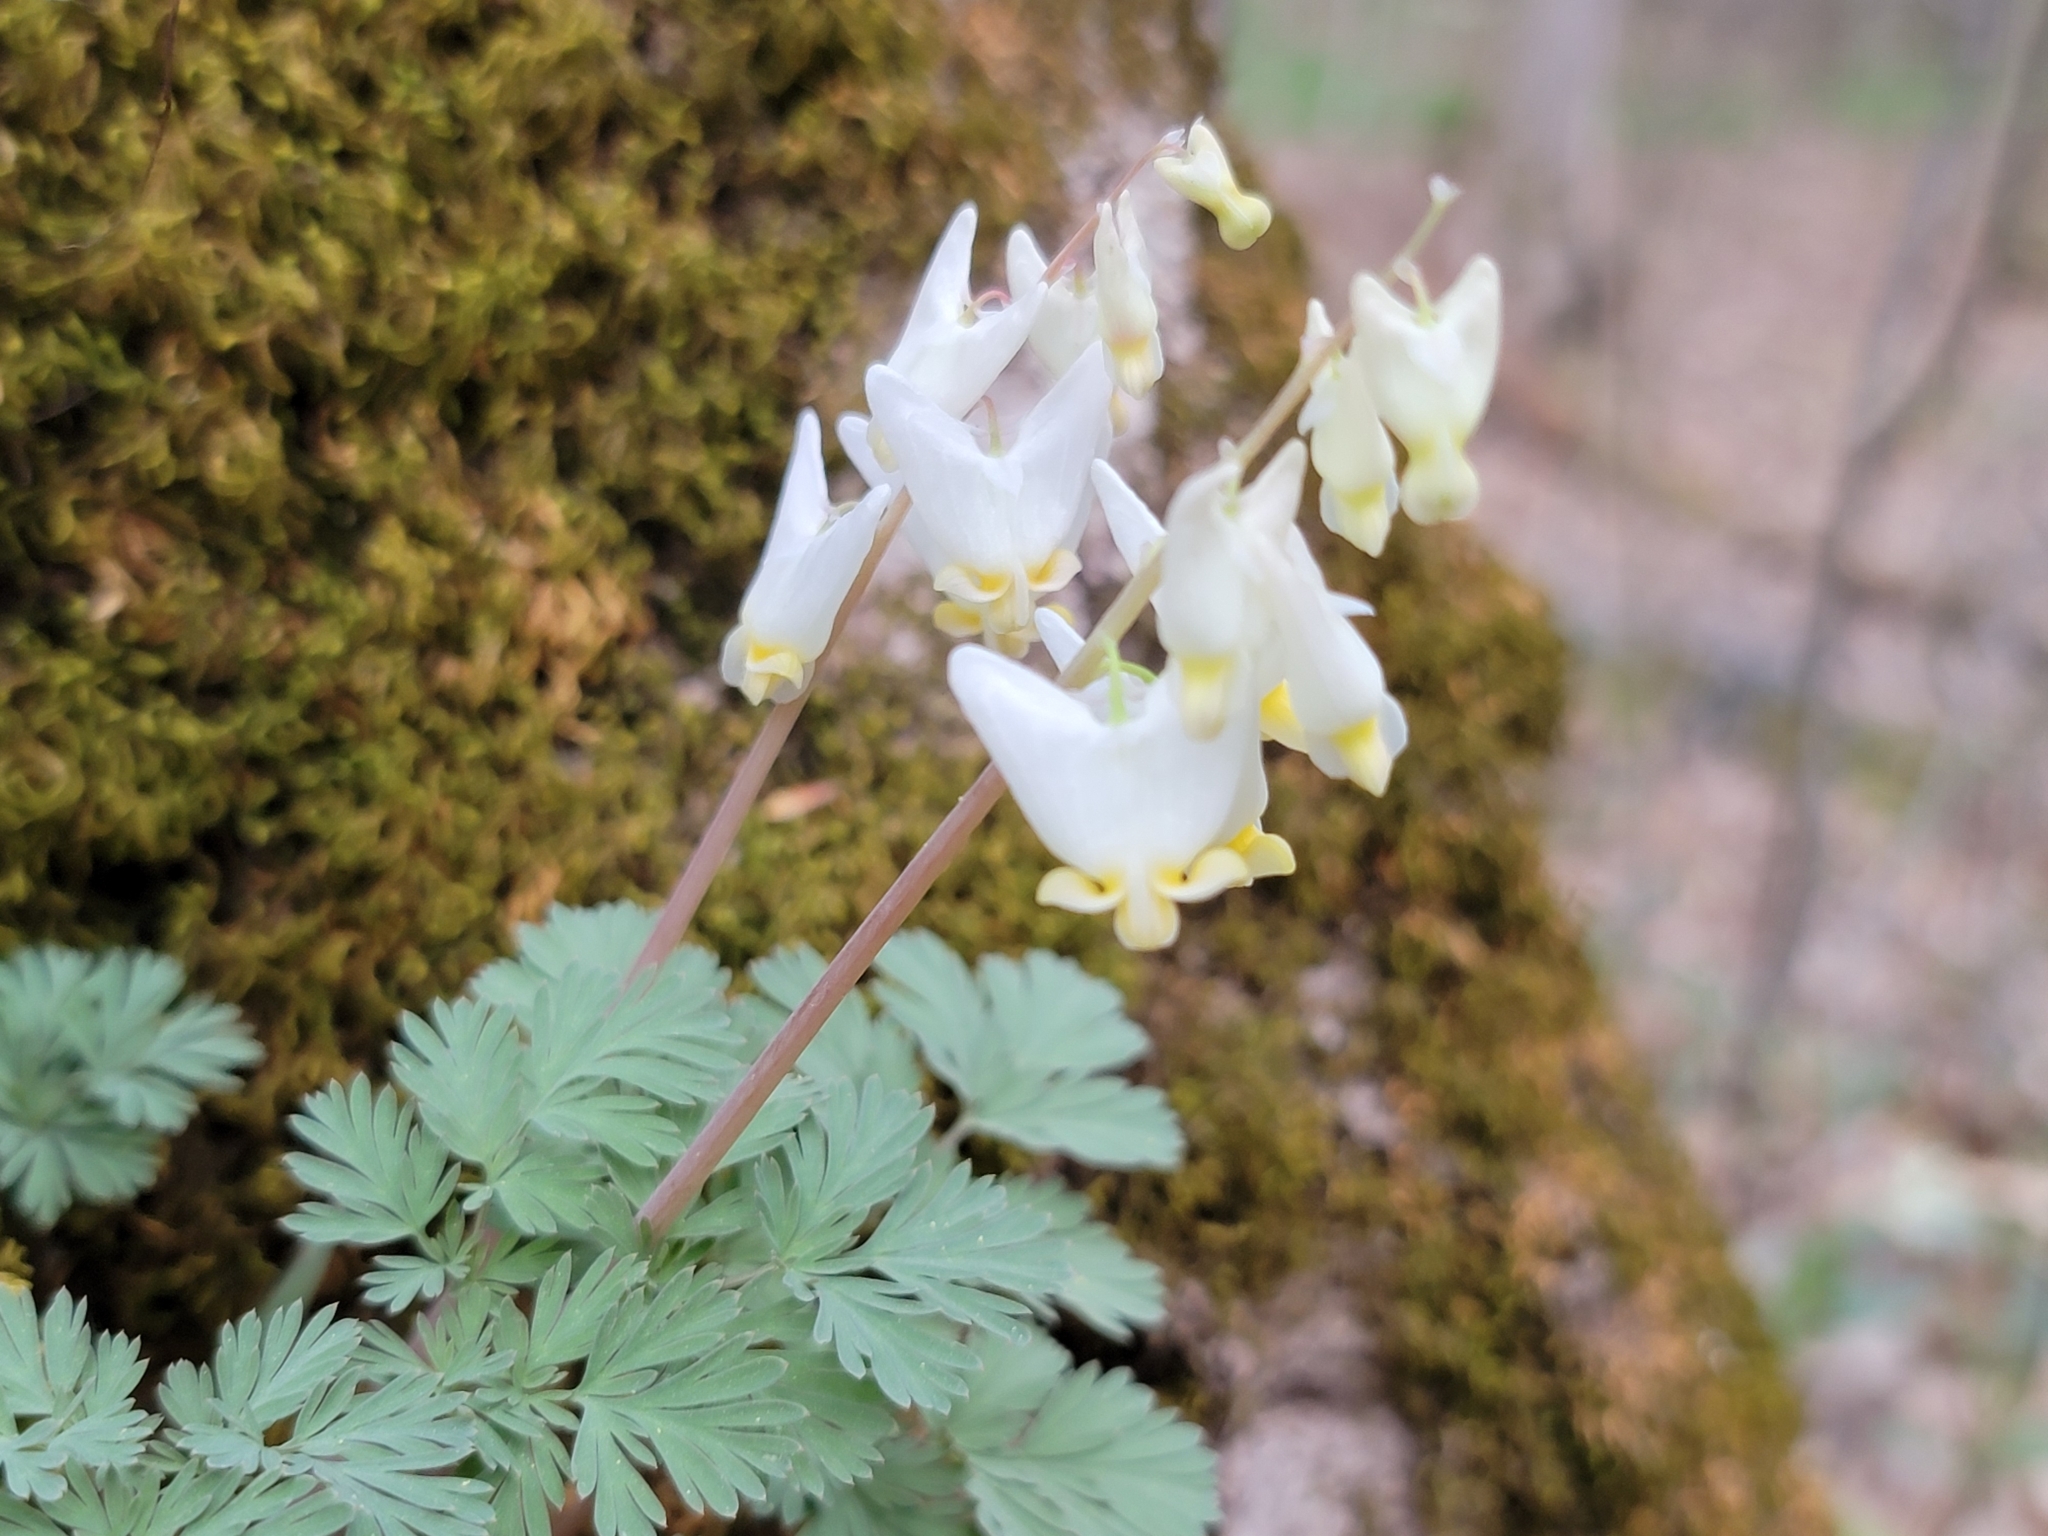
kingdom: Plantae
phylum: Tracheophyta
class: Magnoliopsida
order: Ranunculales
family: Papaveraceae
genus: Dicentra
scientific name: Dicentra cucullaria
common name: Dutchman's breeches
